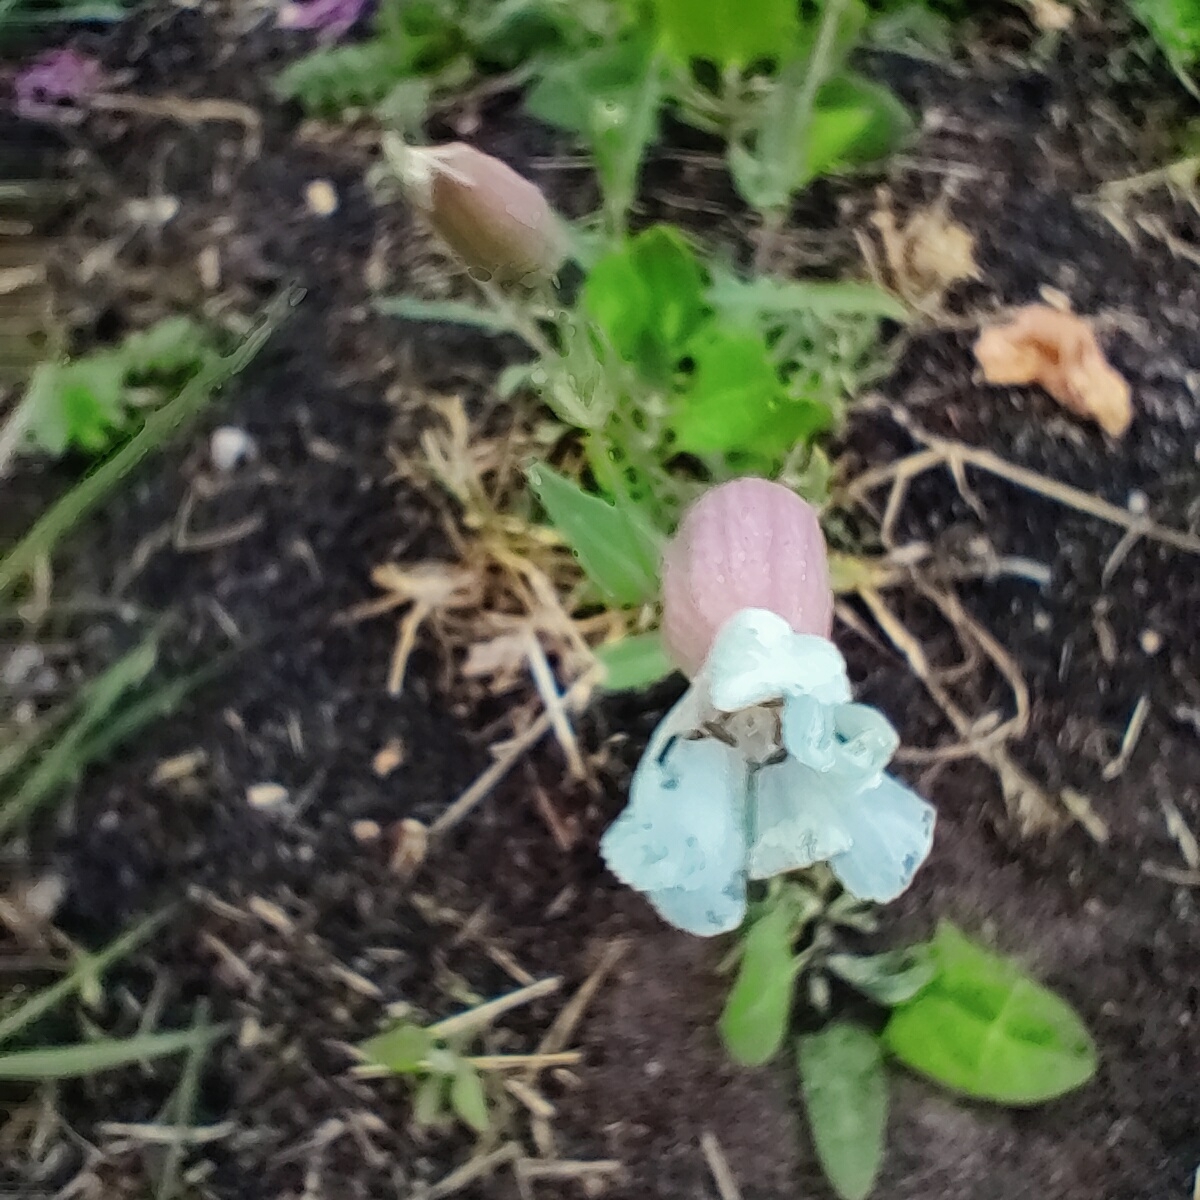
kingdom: Plantae
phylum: Tracheophyta
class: Magnoliopsida
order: Caryophyllales
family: Caryophyllaceae
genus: Silene
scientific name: Silene uniflora
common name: Sea campion
